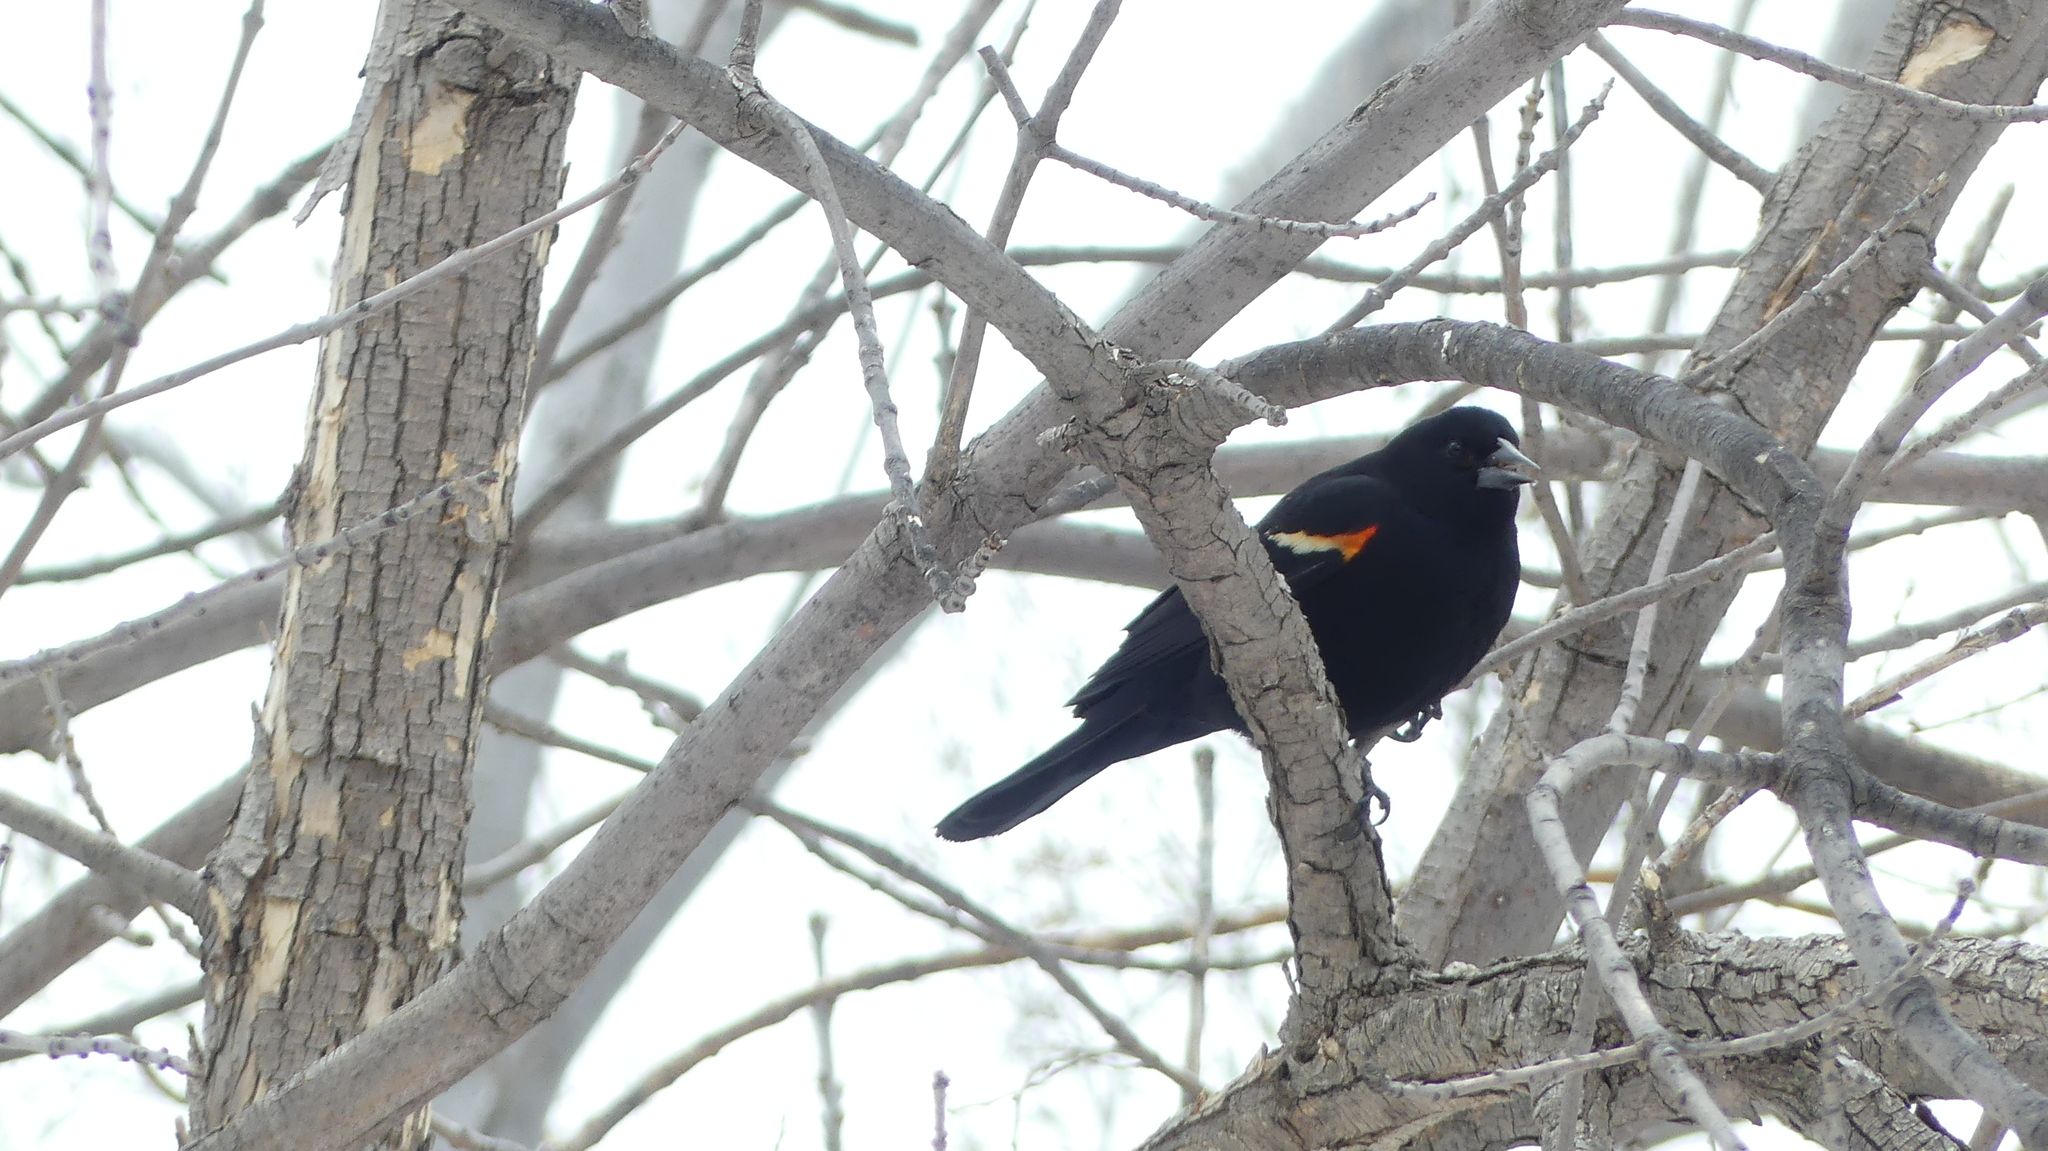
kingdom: Animalia
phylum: Chordata
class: Aves
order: Passeriformes
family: Icteridae
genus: Agelaius
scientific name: Agelaius phoeniceus
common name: Red-winged blackbird
